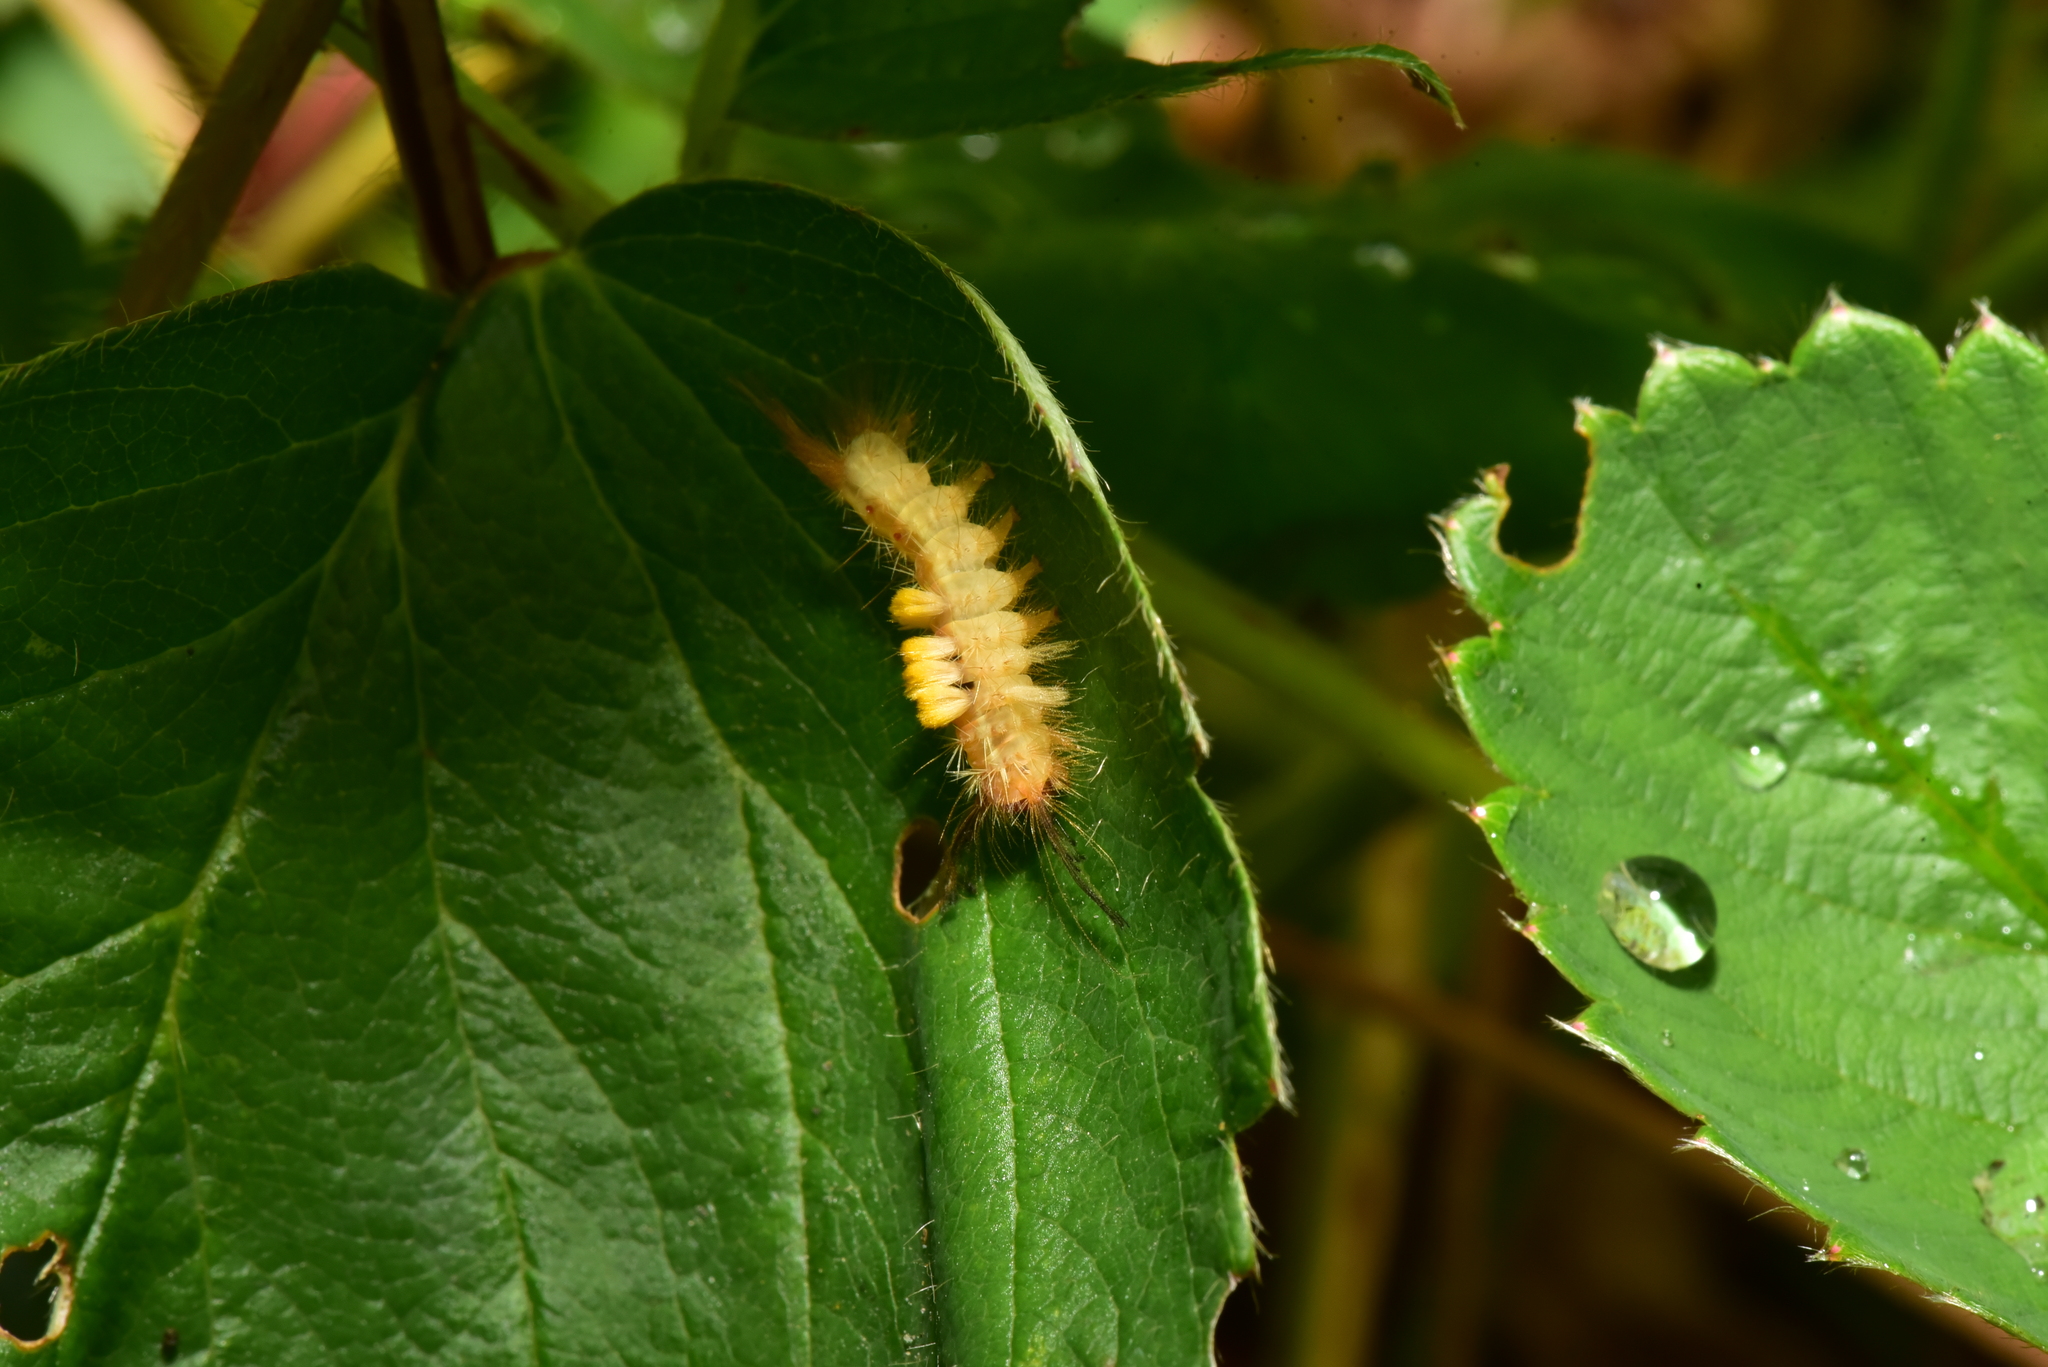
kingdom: Animalia
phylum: Arthropoda
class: Insecta
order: Lepidoptera
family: Erebidae
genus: Orgyia
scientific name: Orgyia postica
